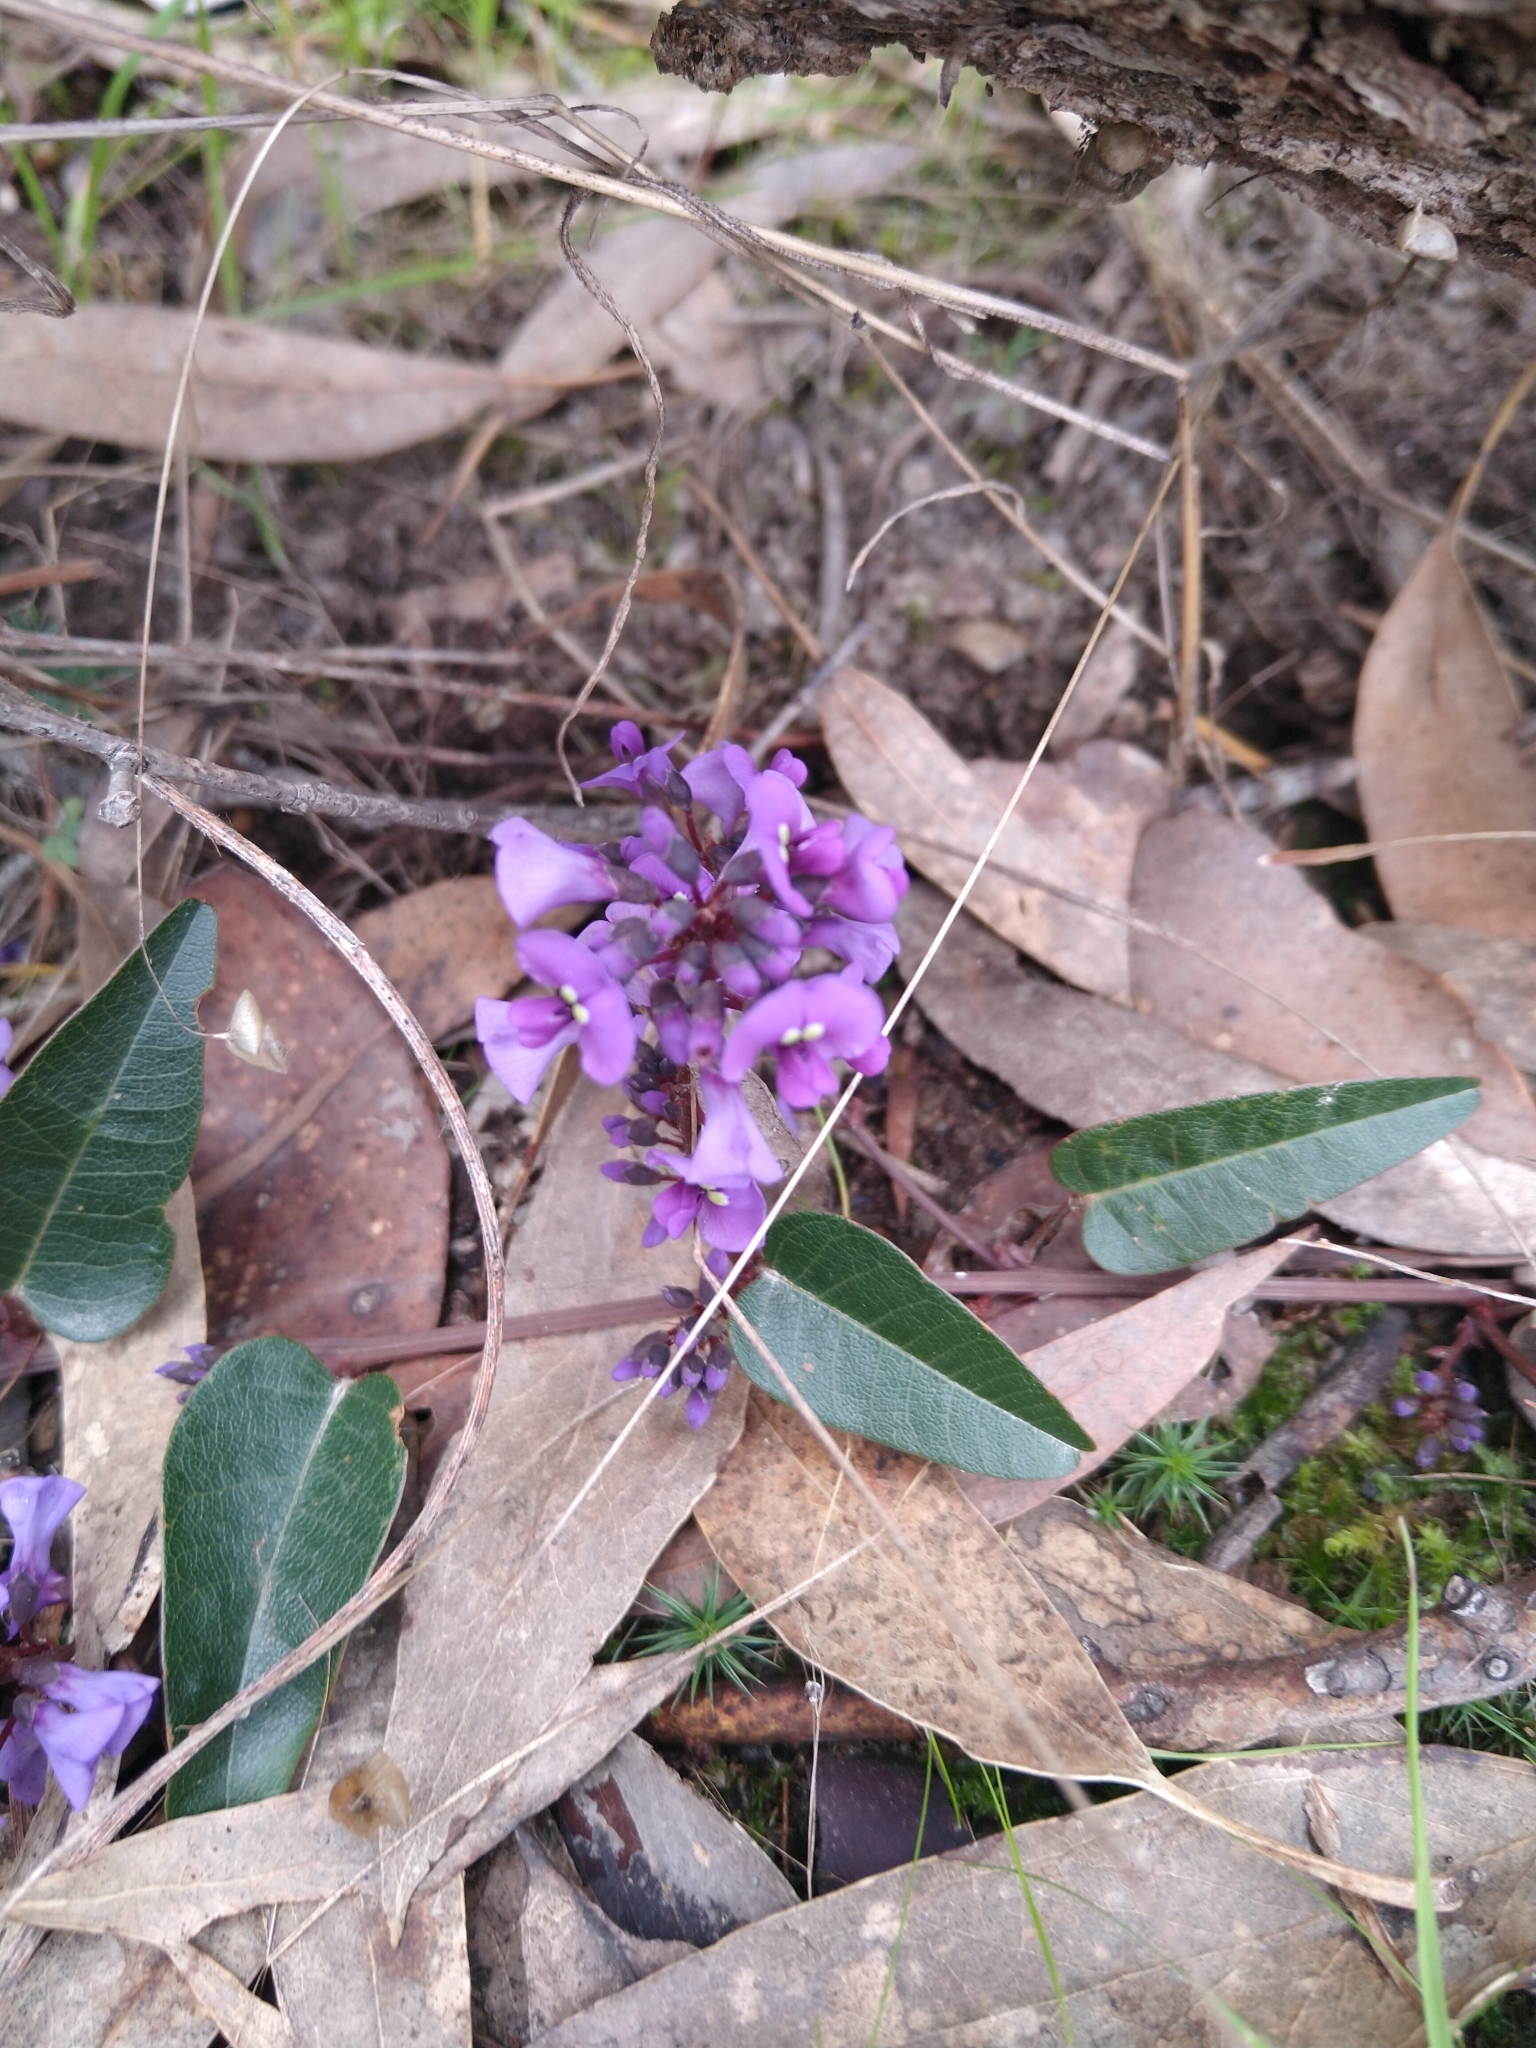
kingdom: Plantae
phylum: Tracheophyta
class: Magnoliopsida
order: Fabales
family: Fabaceae
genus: Hardenbergia
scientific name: Hardenbergia violacea
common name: Coral-pea
